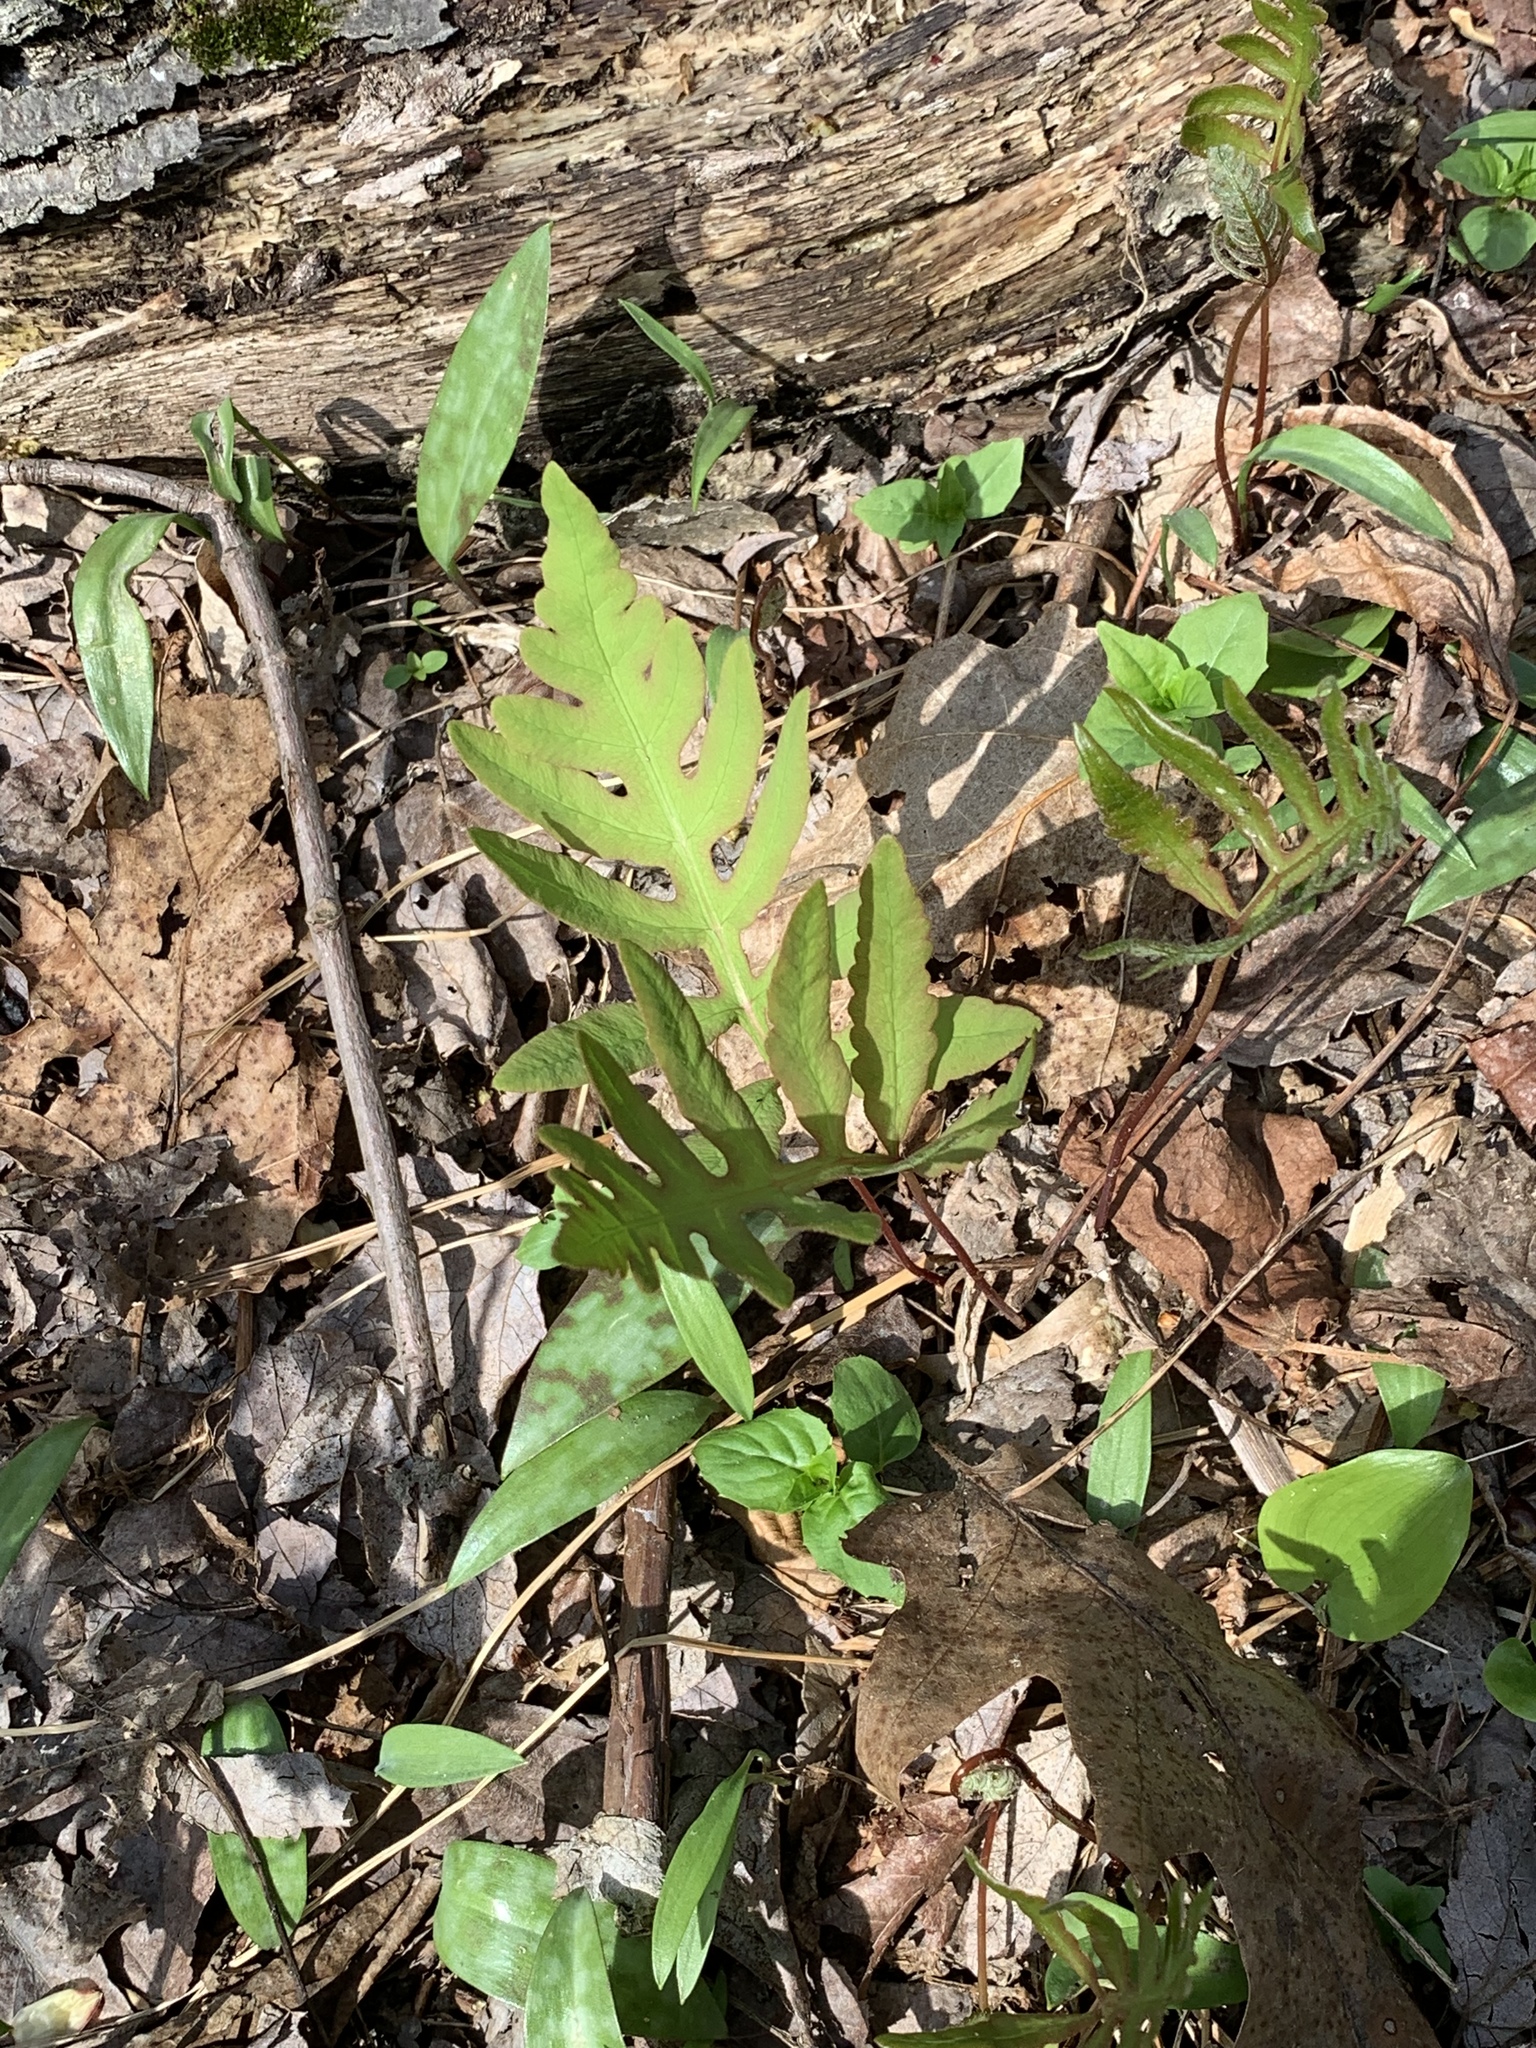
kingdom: Plantae
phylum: Tracheophyta
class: Polypodiopsida
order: Polypodiales
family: Onocleaceae
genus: Onoclea
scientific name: Onoclea sensibilis
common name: Sensitive fern
